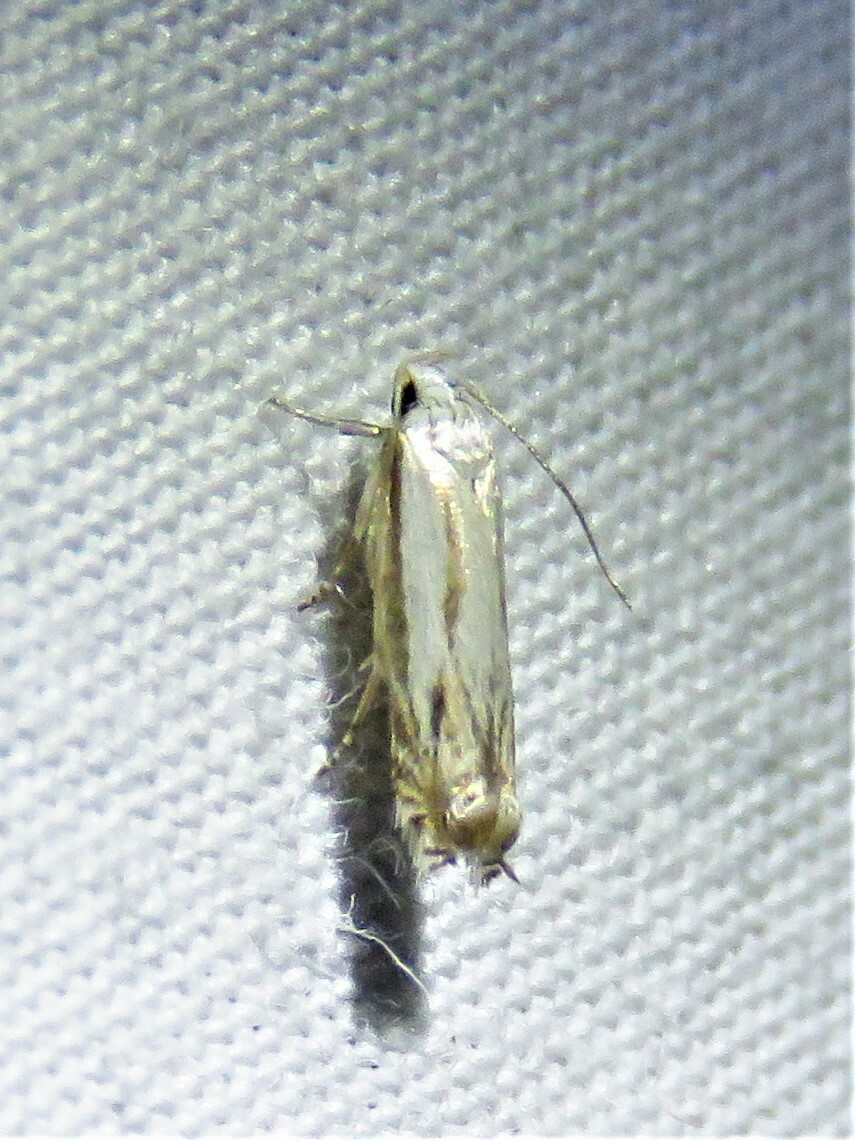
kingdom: Animalia
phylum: Arthropoda
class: Insecta
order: Lepidoptera
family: Gelechiidae
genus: Polyhymno
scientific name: Polyhymno acaciella
